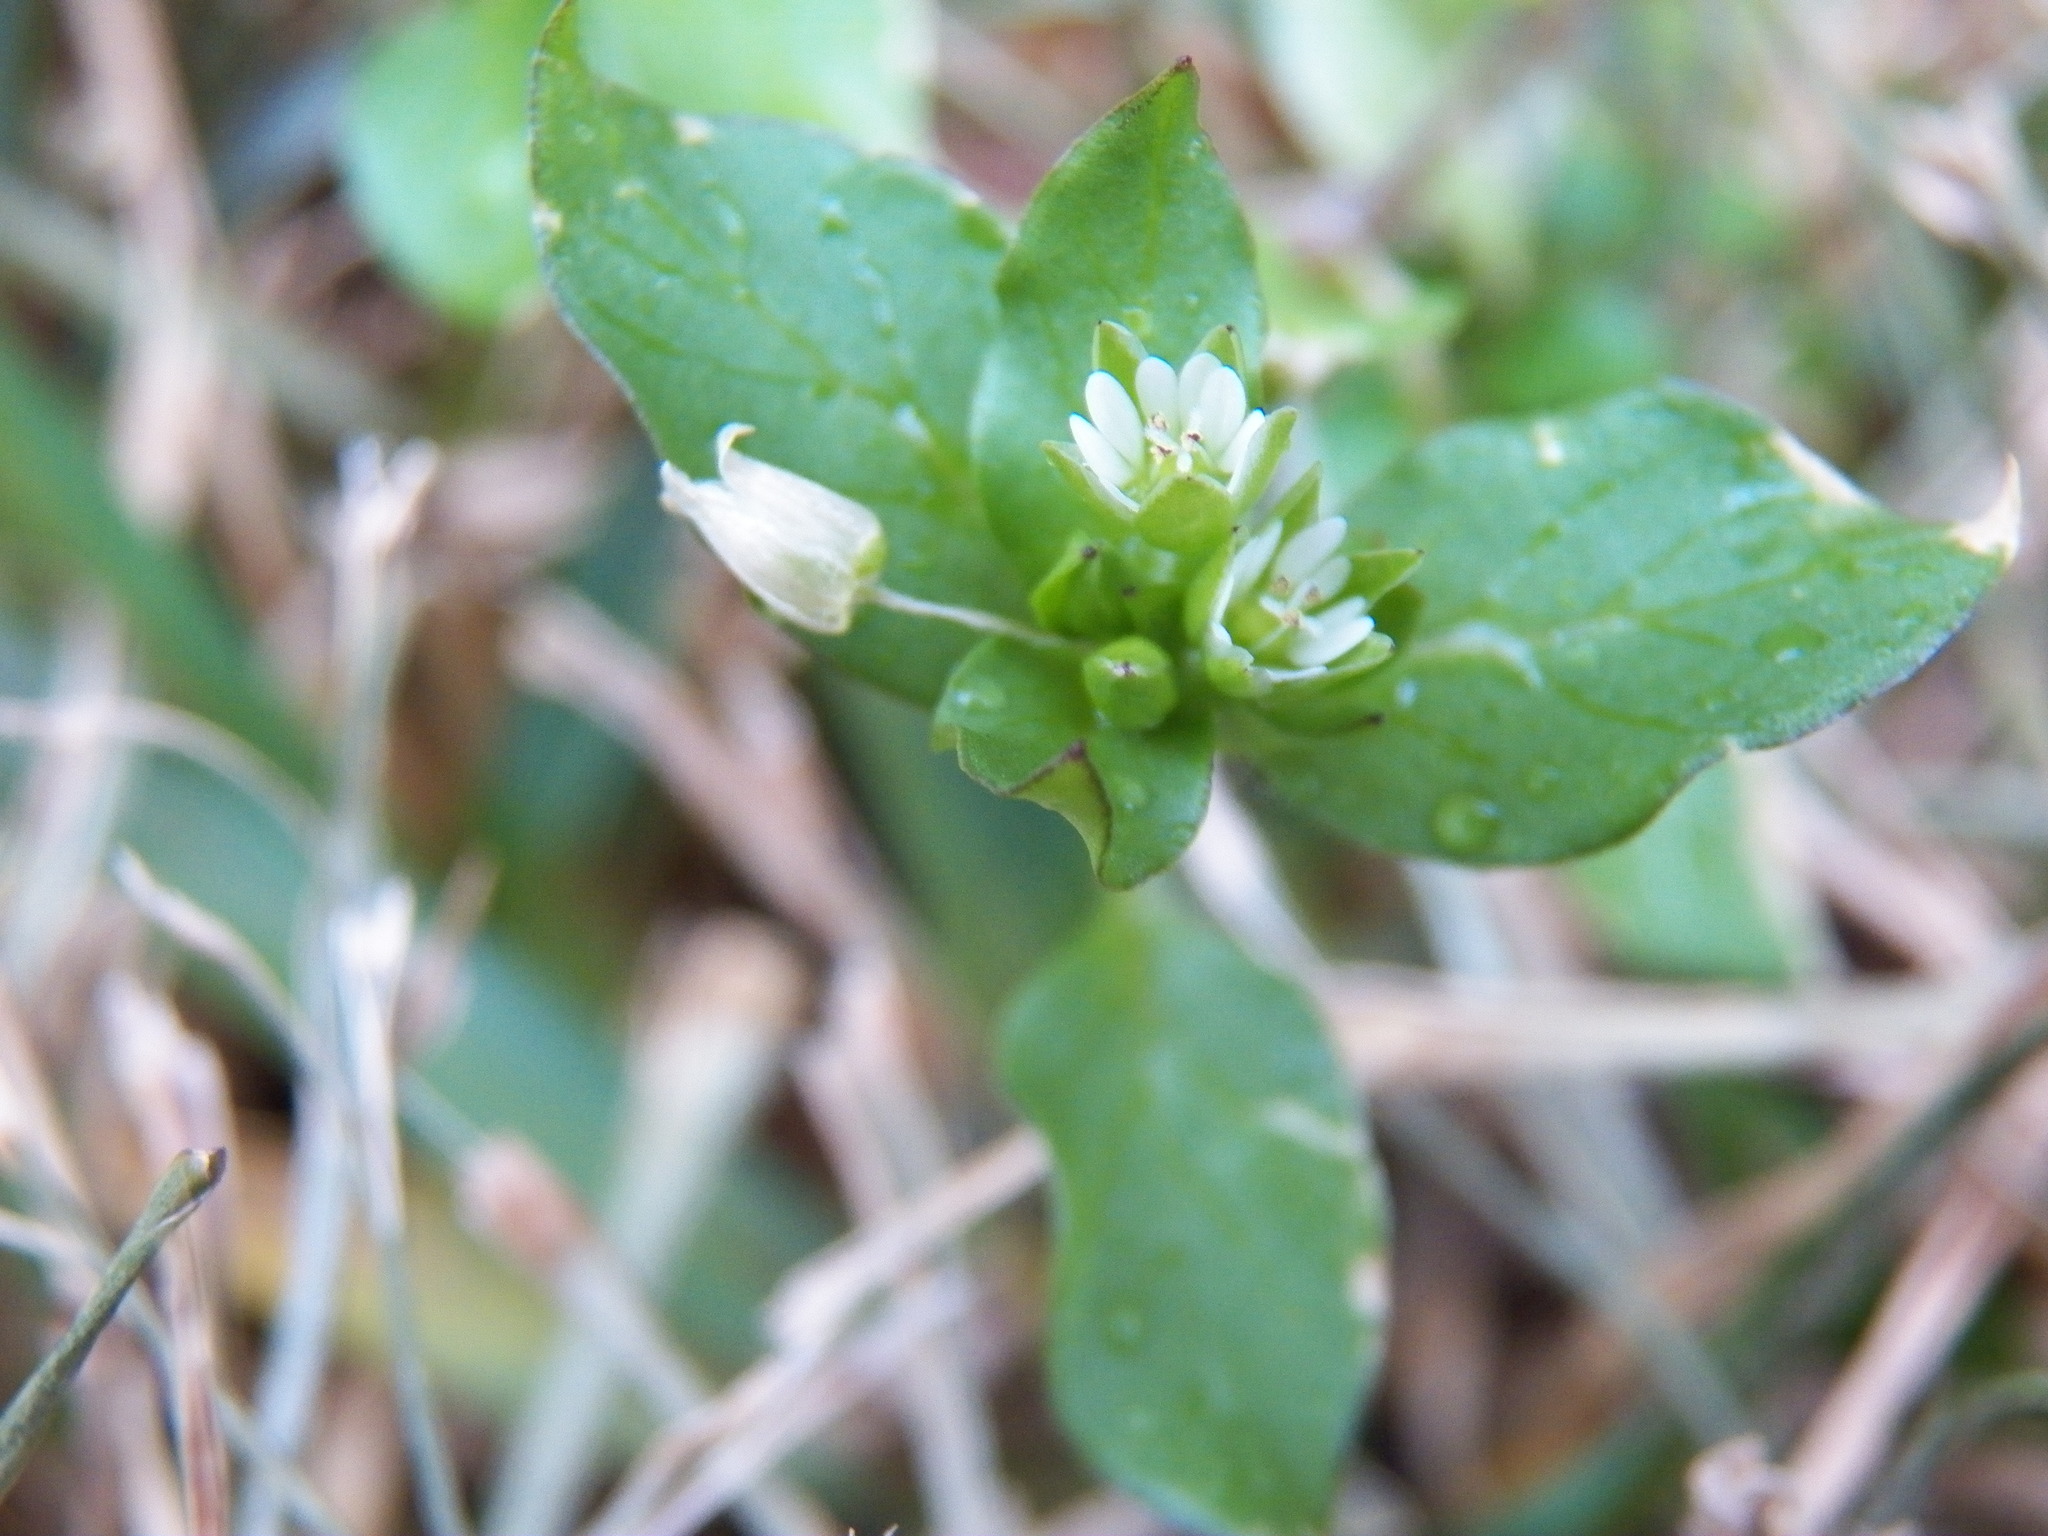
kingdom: Plantae
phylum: Tracheophyta
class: Magnoliopsida
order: Caryophyllales
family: Caryophyllaceae
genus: Stellaria
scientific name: Stellaria media
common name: Common chickweed
